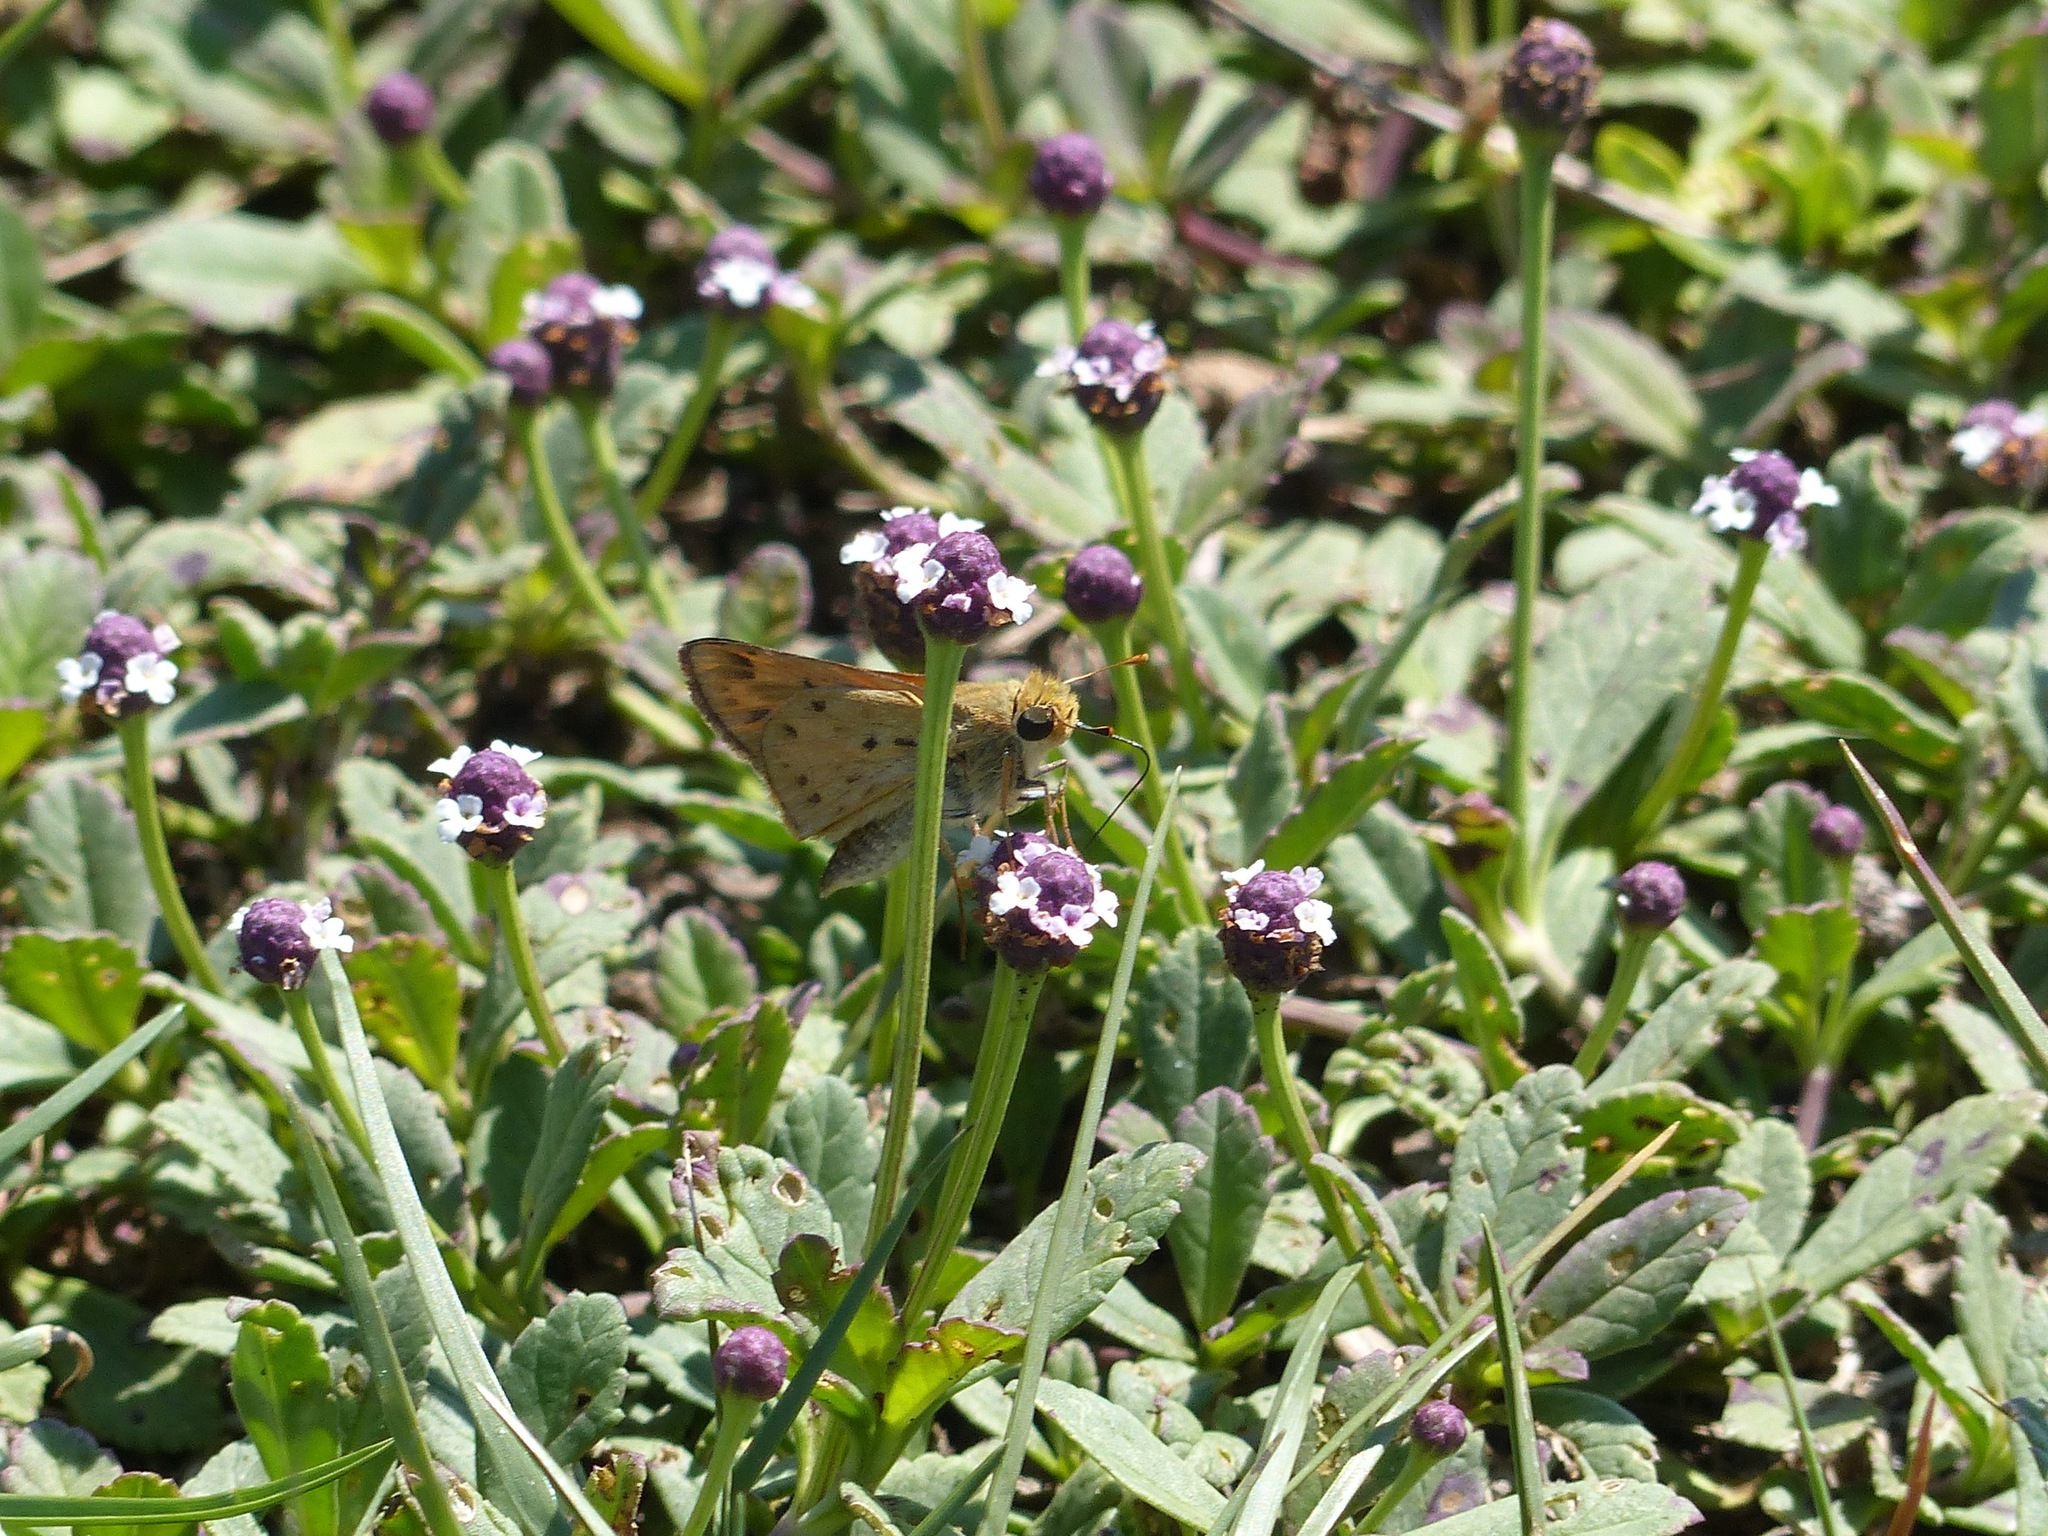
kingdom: Plantae
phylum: Tracheophyta
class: Magnoliopsida
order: Lamiales
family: Verbenaceae
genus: Phyla
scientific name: Phyla nodiflora
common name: Frogfruit
